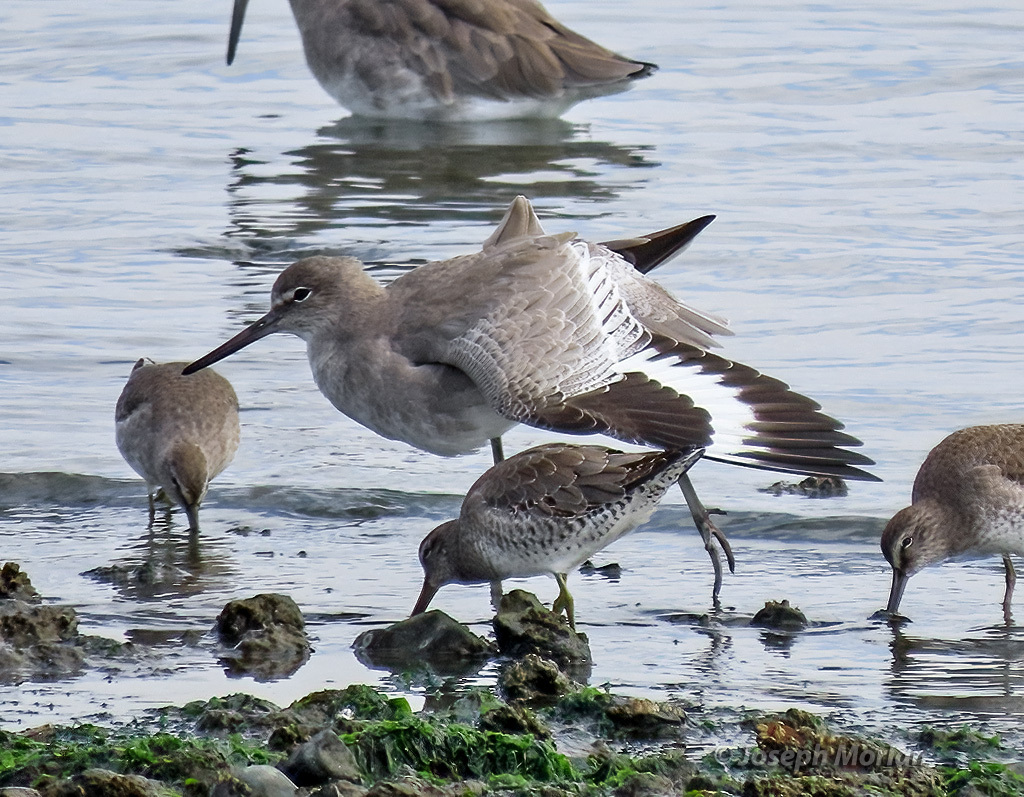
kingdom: Animalia
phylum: Chordata
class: Aves
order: Charadriiformes
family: Scolopacidae
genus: Tringa
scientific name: Tringa semipalmata
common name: Willet
